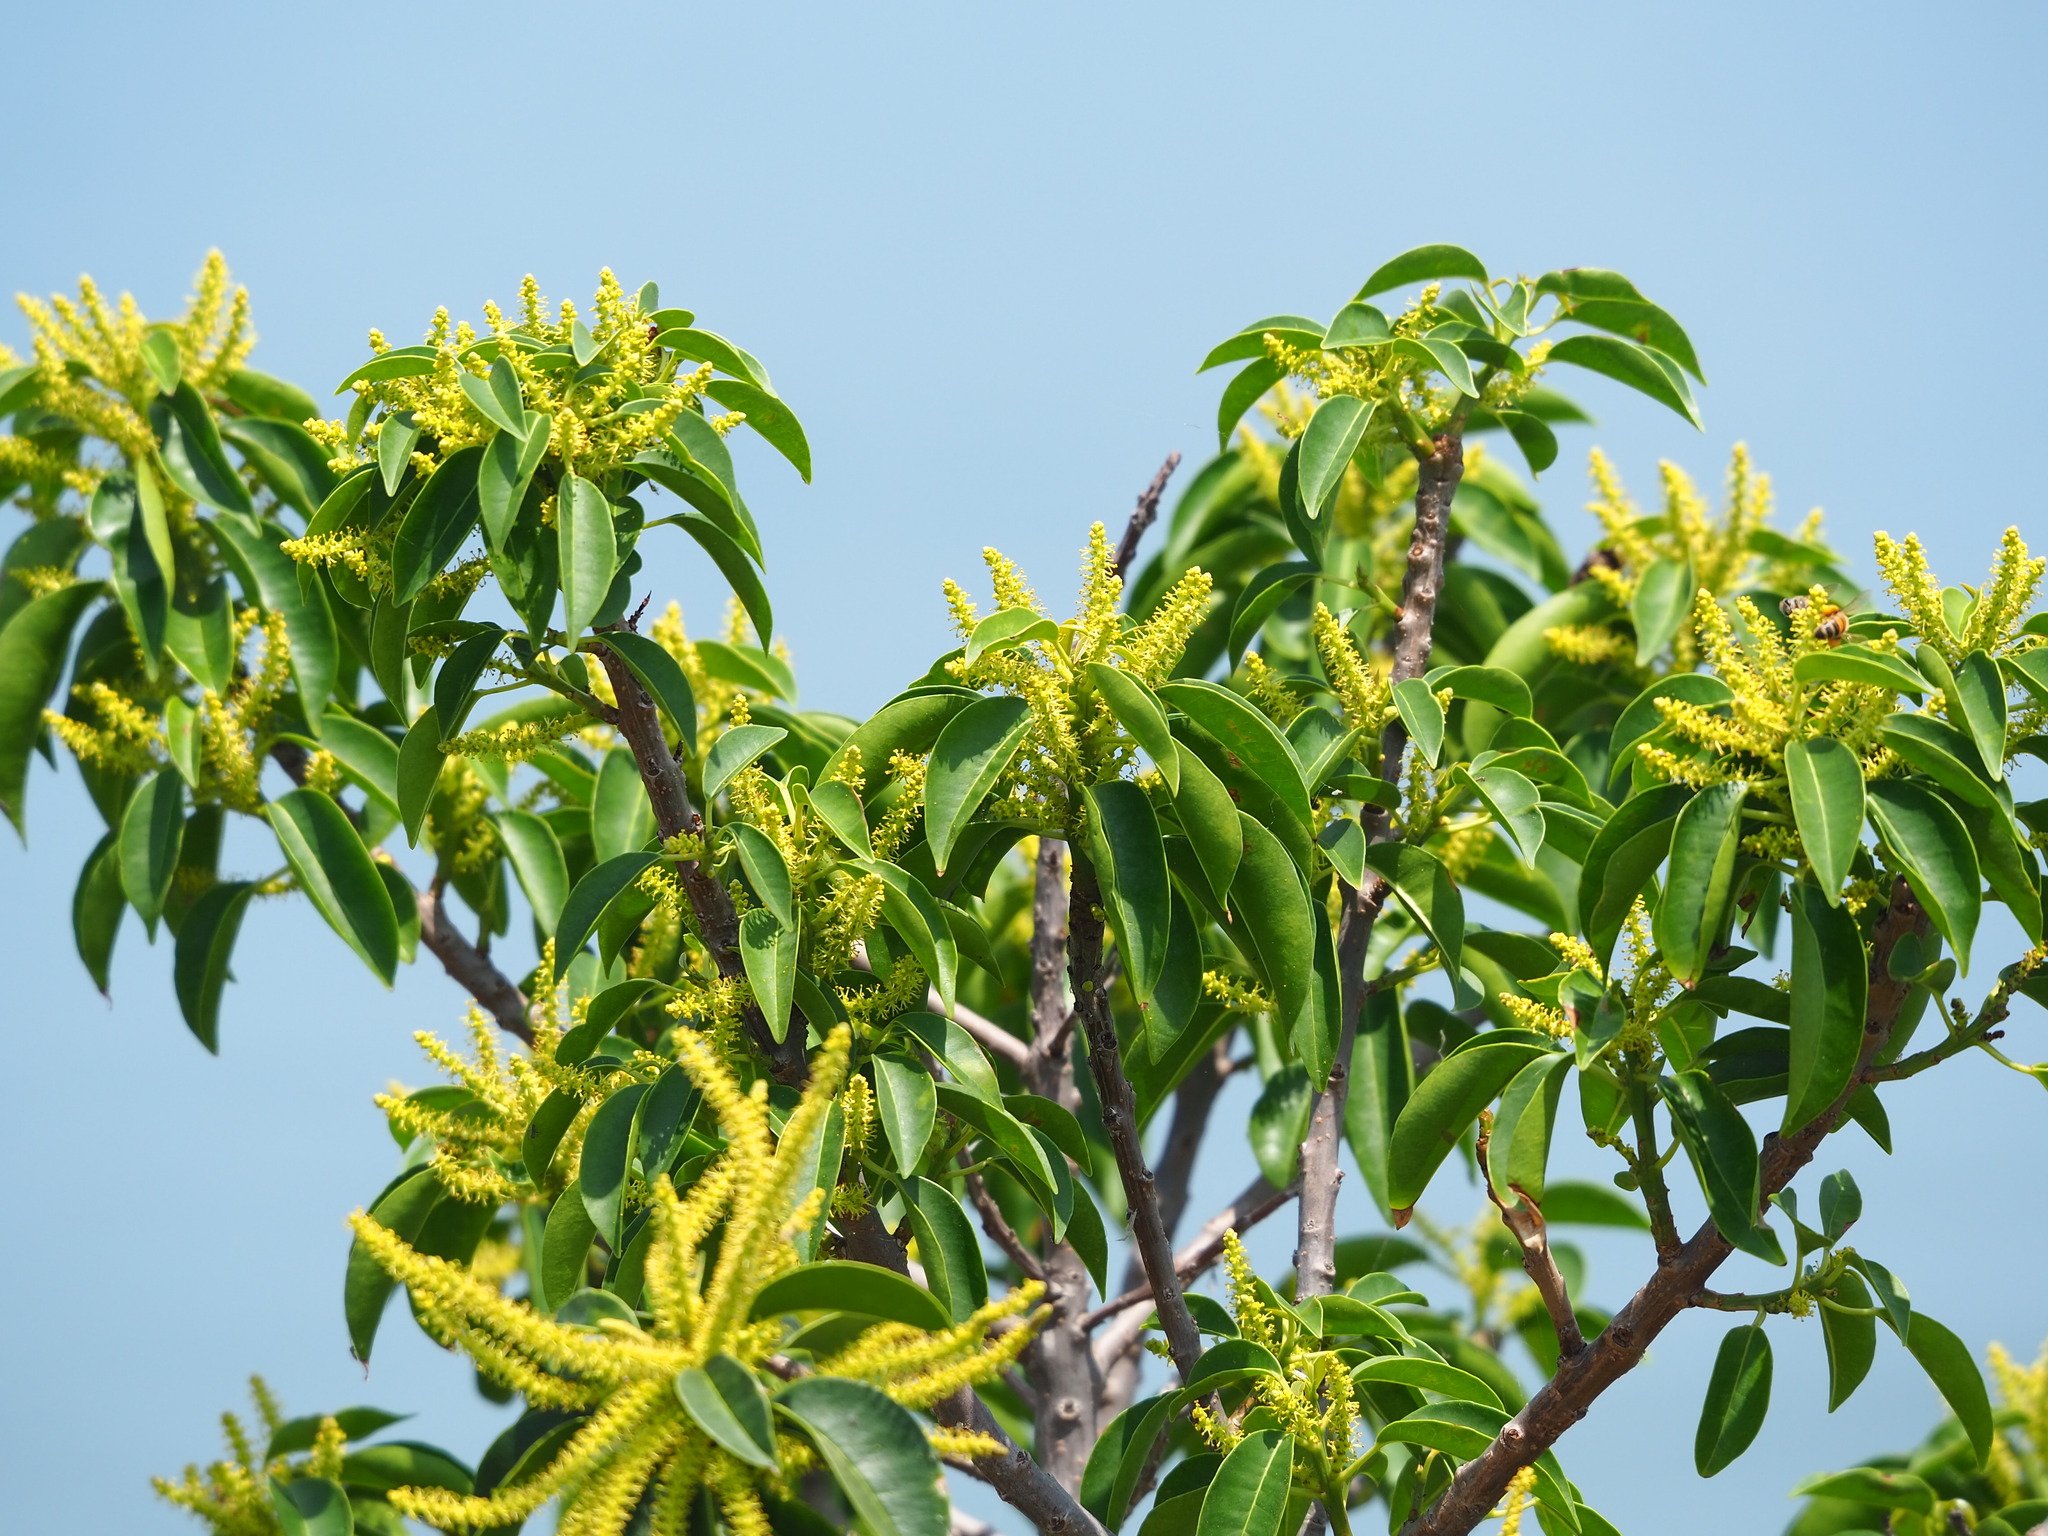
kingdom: Plantae
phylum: Tracheophyta
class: Magnoliopsida
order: Malpighiales
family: Euphorbiaceae
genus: Excoecaria
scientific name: Excoecaria agallocha
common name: River poisontree
